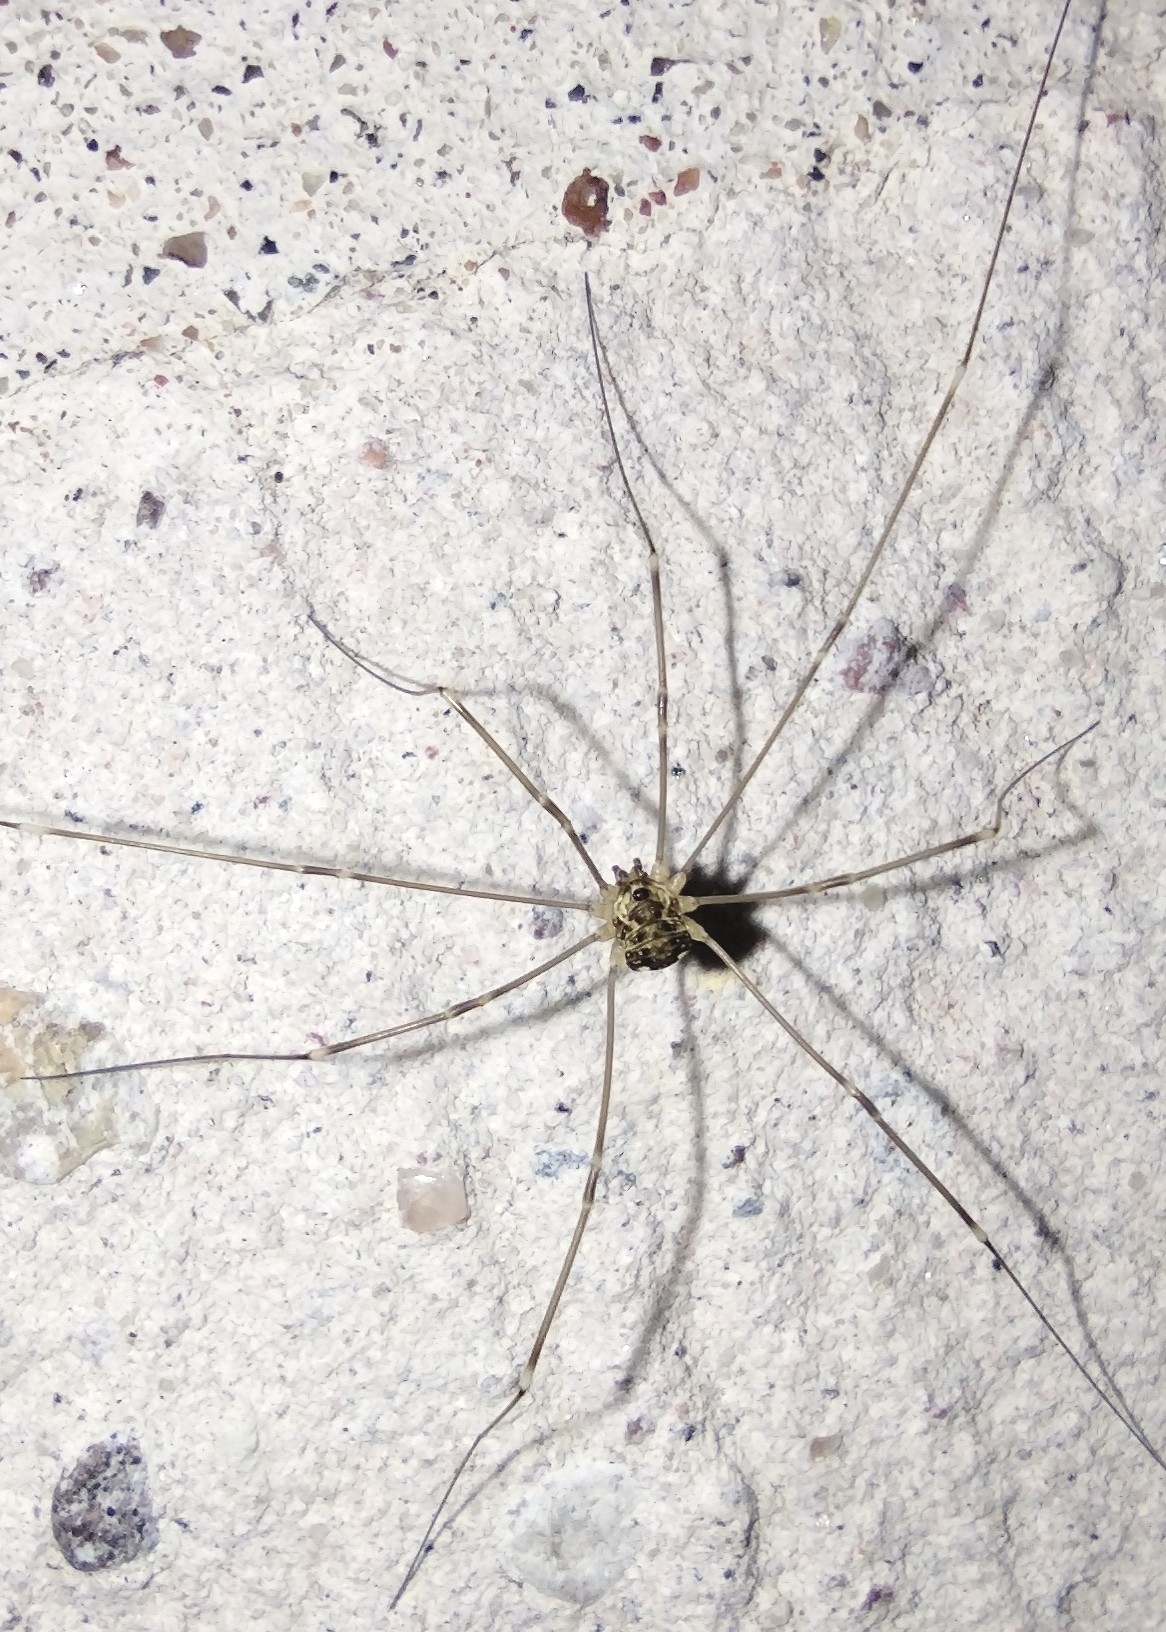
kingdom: Animalia
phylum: Arthropoda
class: Arachnida
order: Opiliones
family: Sclerosomatidae
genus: Leiobunum
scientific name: Leiobunum gracile
